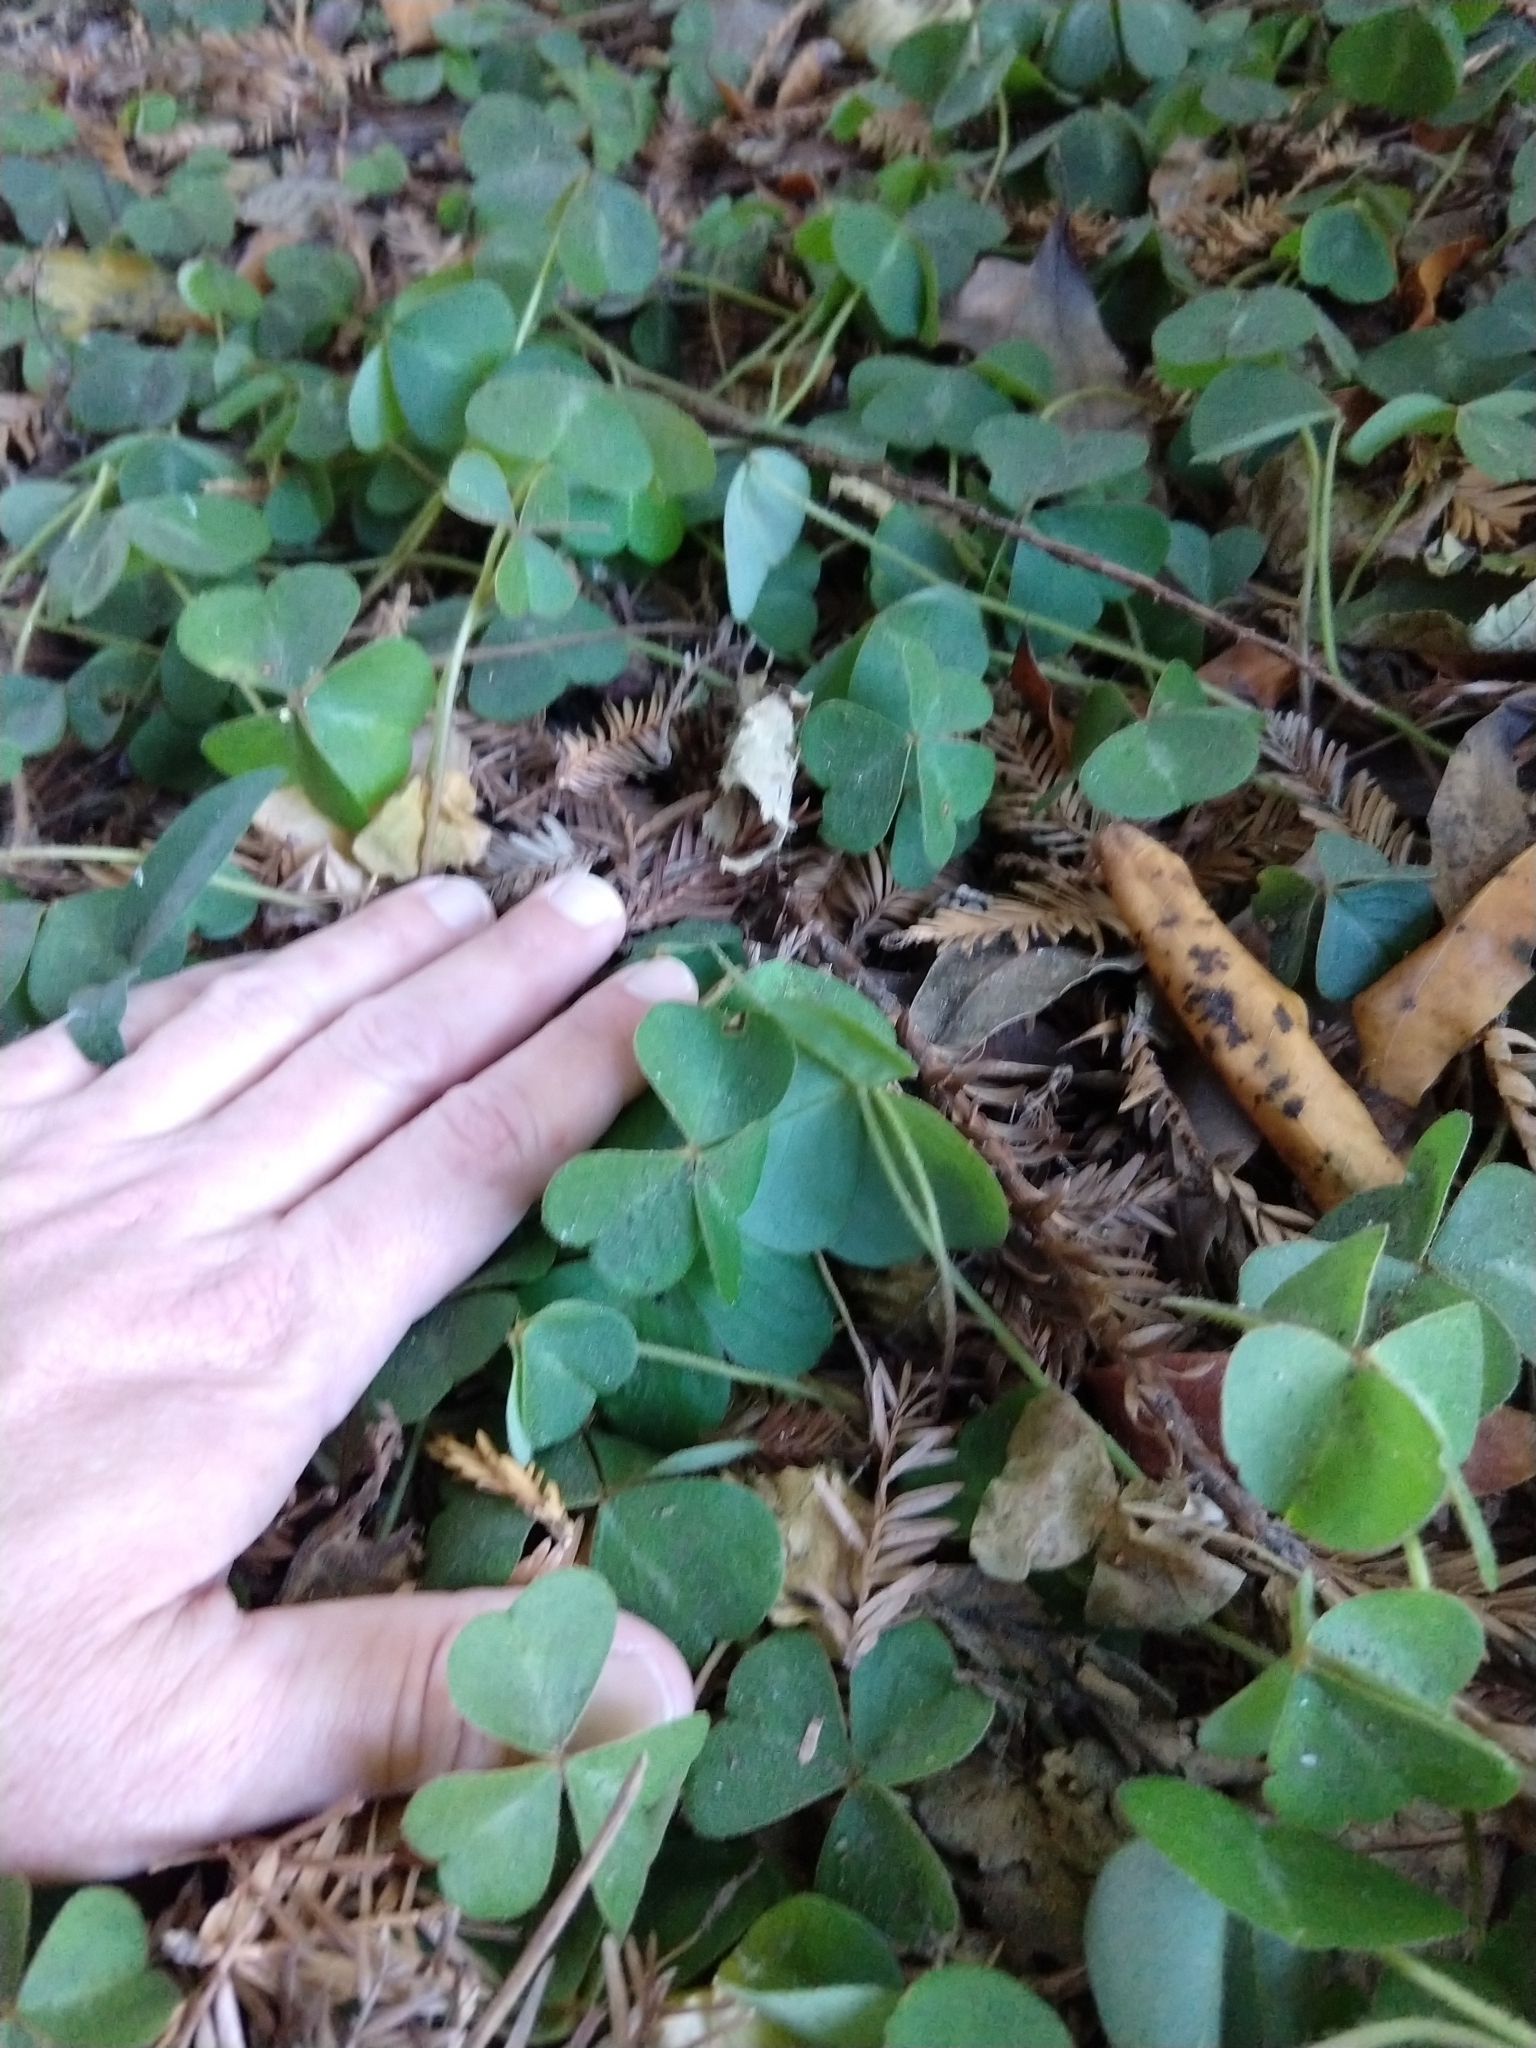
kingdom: Plantae
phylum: Tracheophyta
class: Magnoliopsida
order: Oxalidales
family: Oxalidaceae
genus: Oxalis
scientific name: Oxalis oregana
